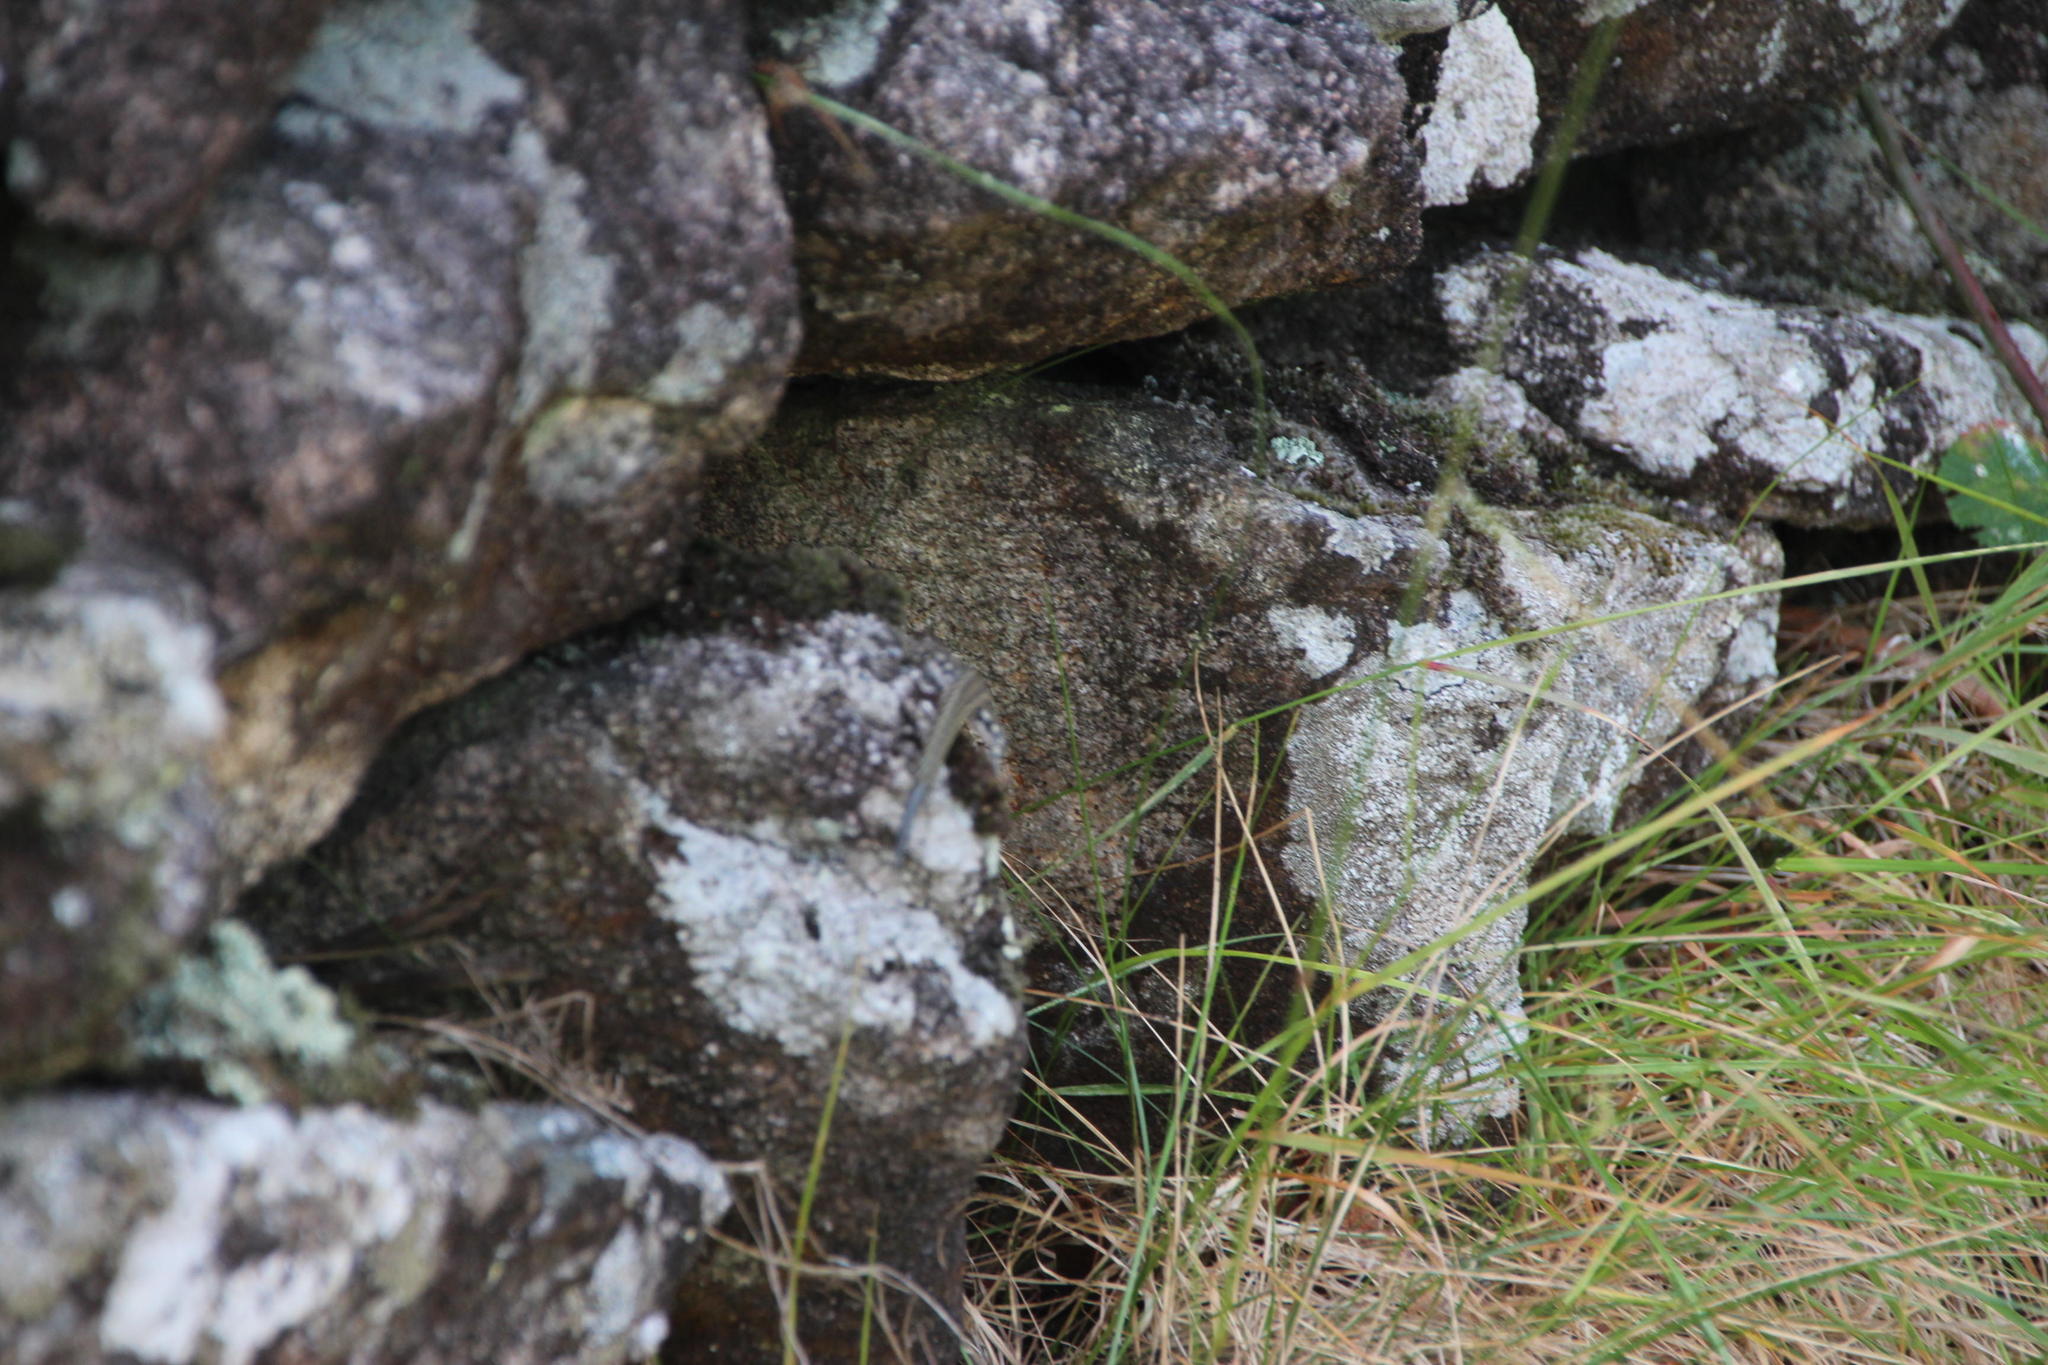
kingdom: Animalia
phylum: Chordata
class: Squamata
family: Lacertidae
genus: Podarcis
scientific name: Podarcis bocagei
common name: Bocage's wall lizard
